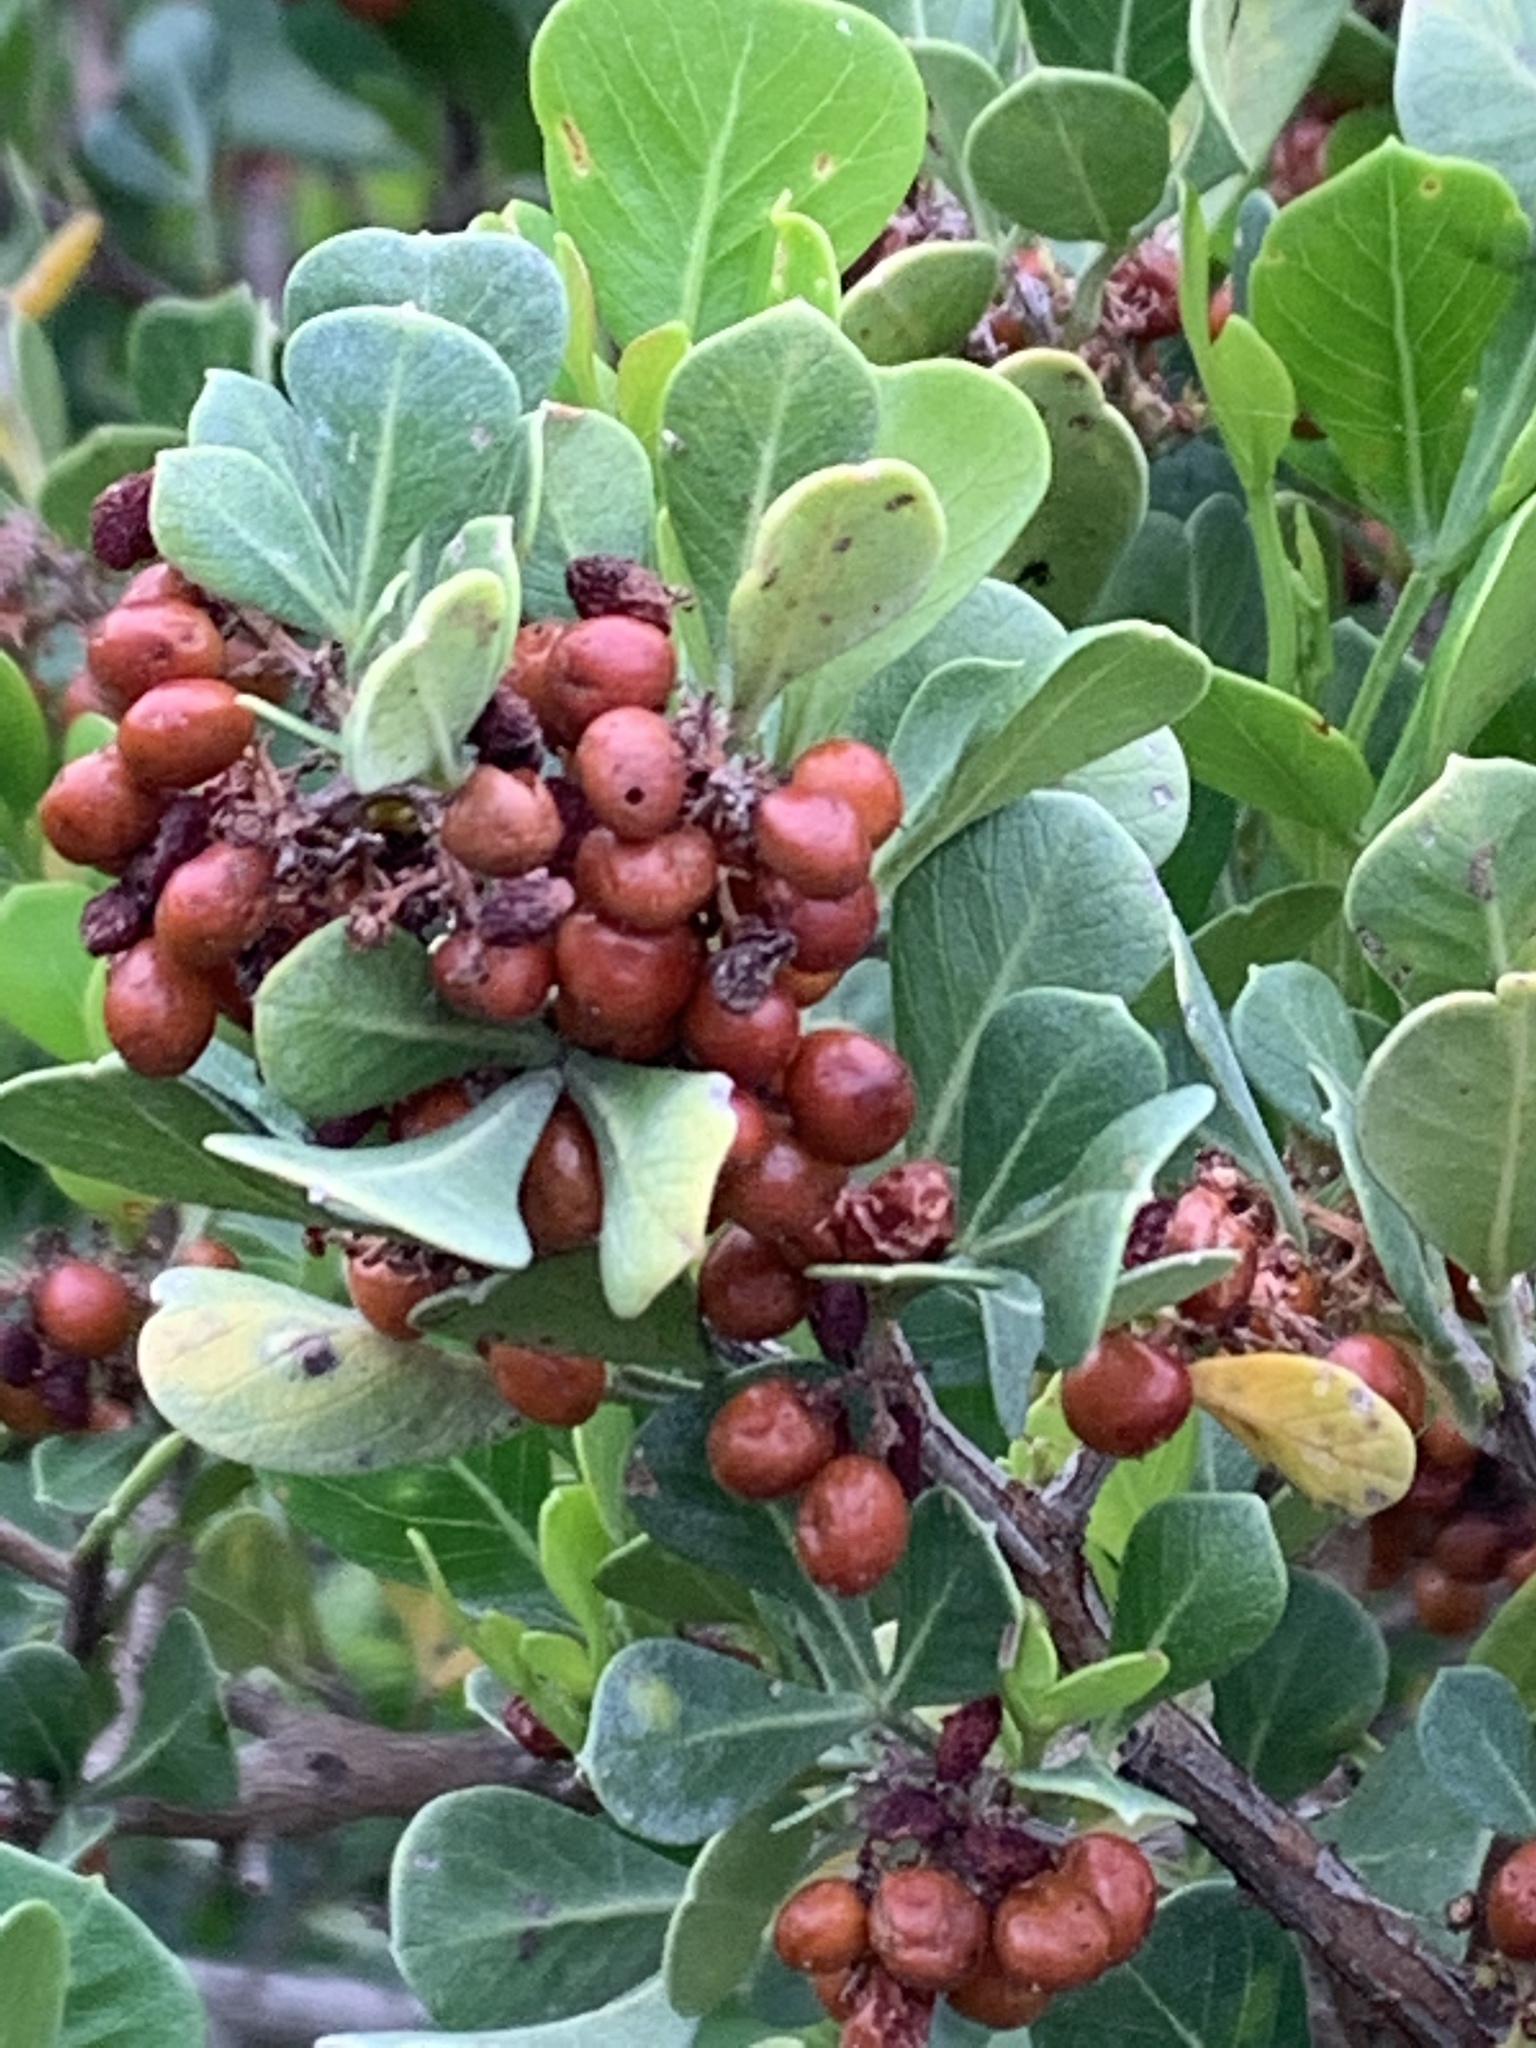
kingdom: Plantae
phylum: Tracheophyta
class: Magnoliopsida
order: Sapindales
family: Anacardiaceae
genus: Searsia
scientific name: Searsia glauca
